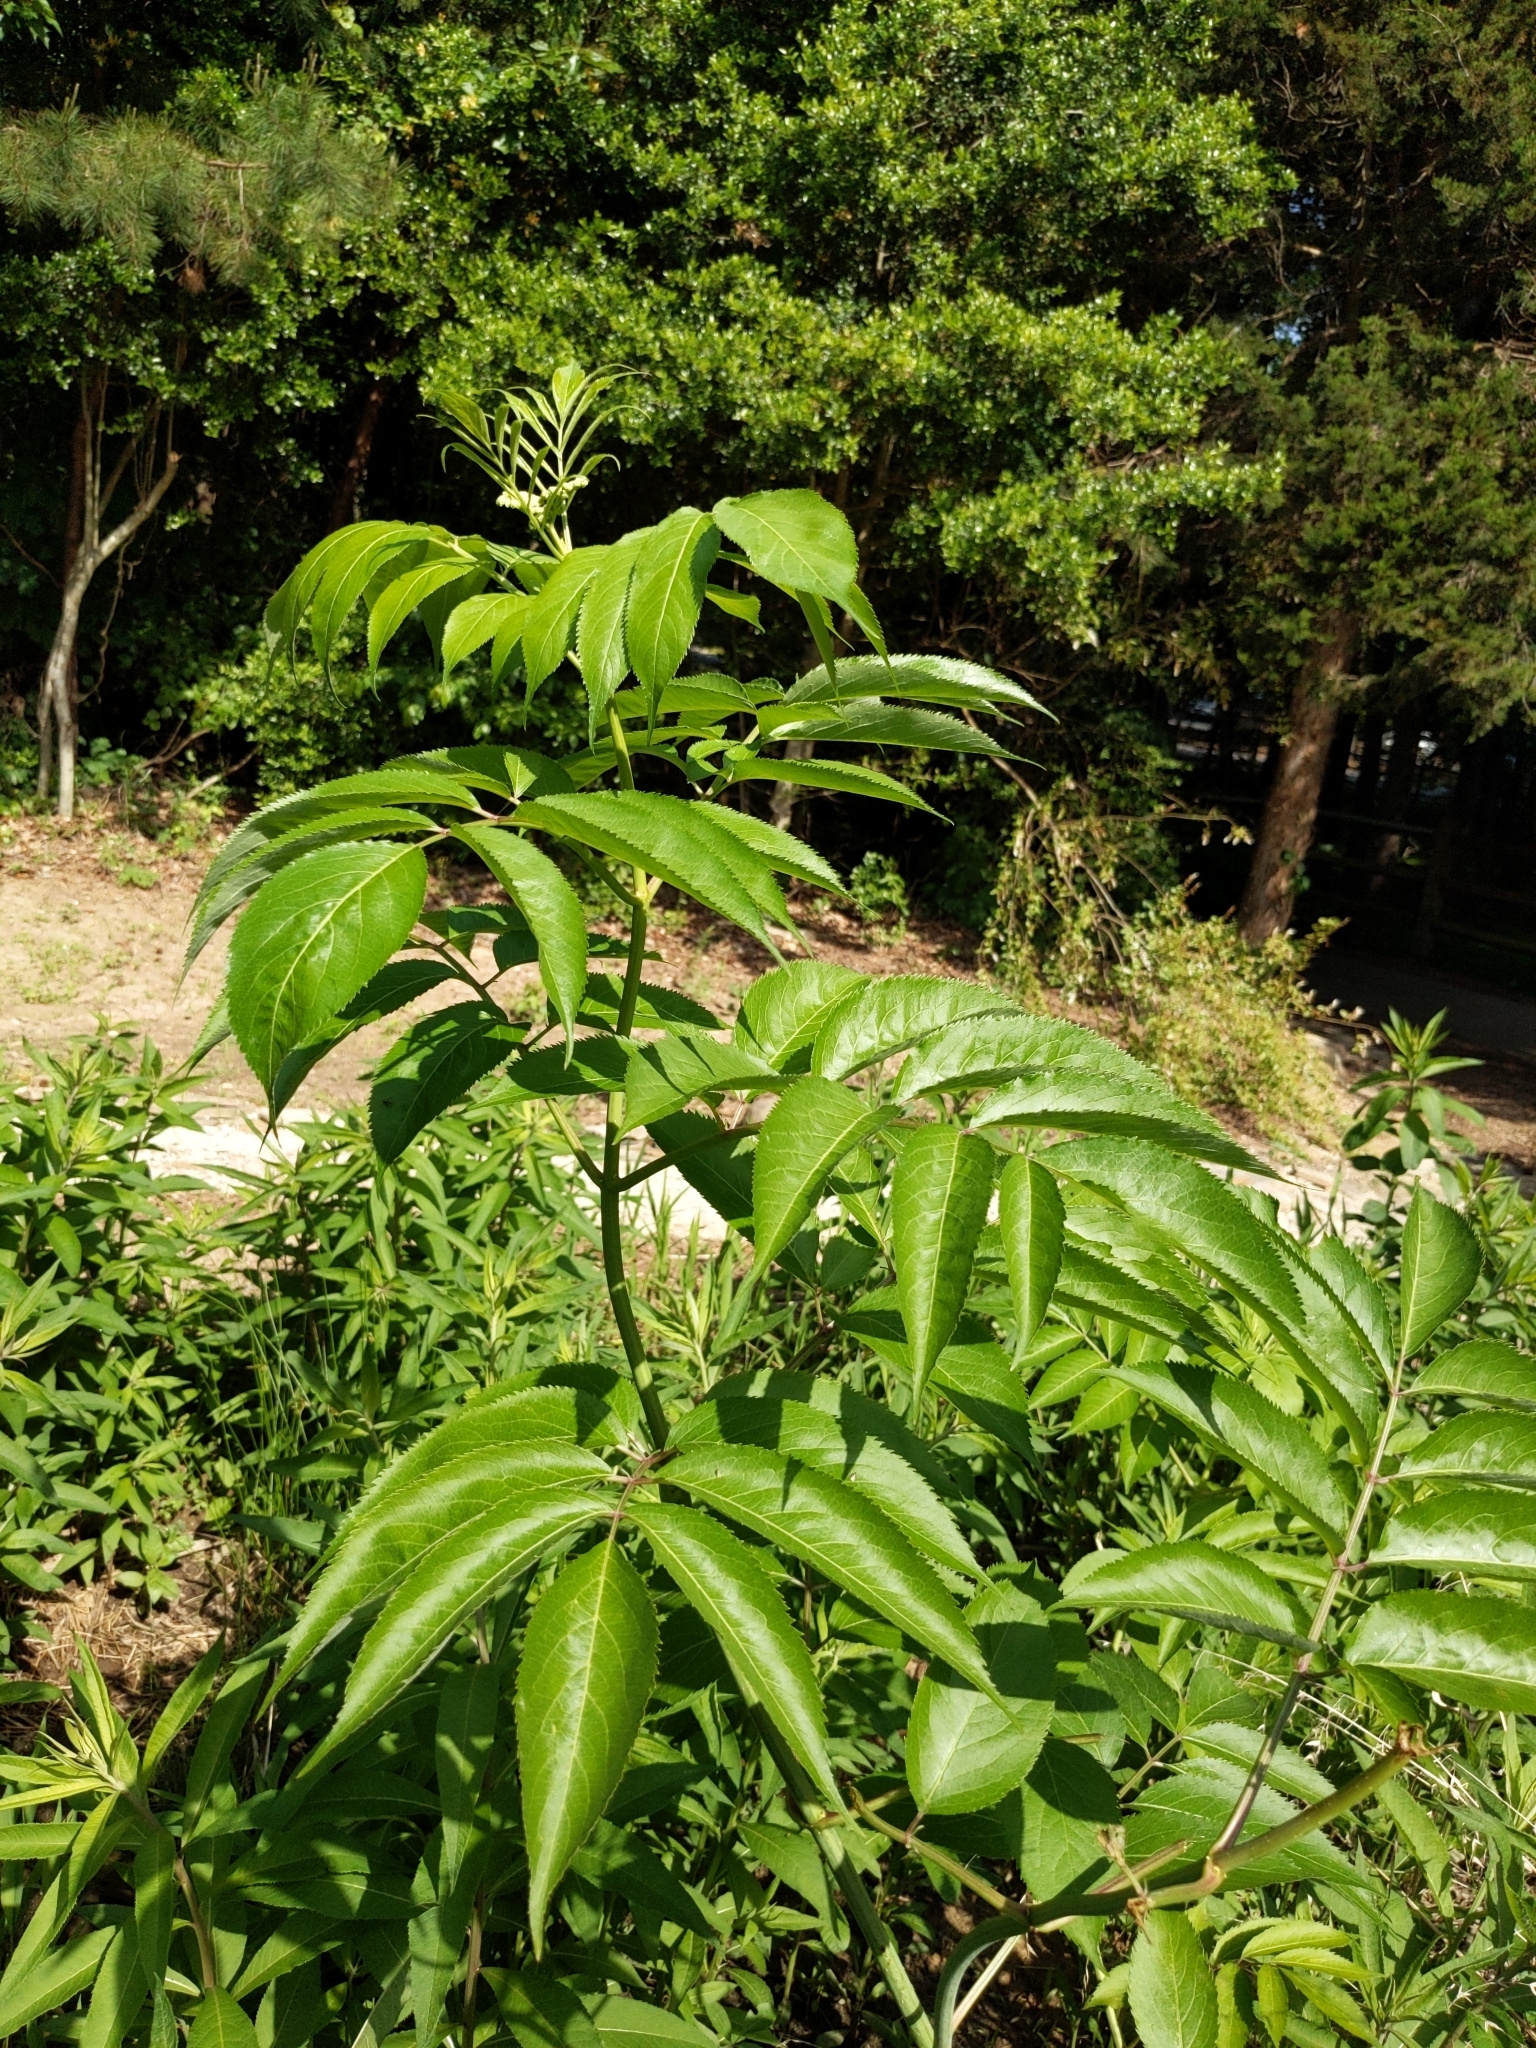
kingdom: Plantae
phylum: Tracheophyta
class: Magnoliopsida
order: Dipsacales
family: Viburnaceae
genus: Sambucus
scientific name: Sambucus canadensis
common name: American elder
